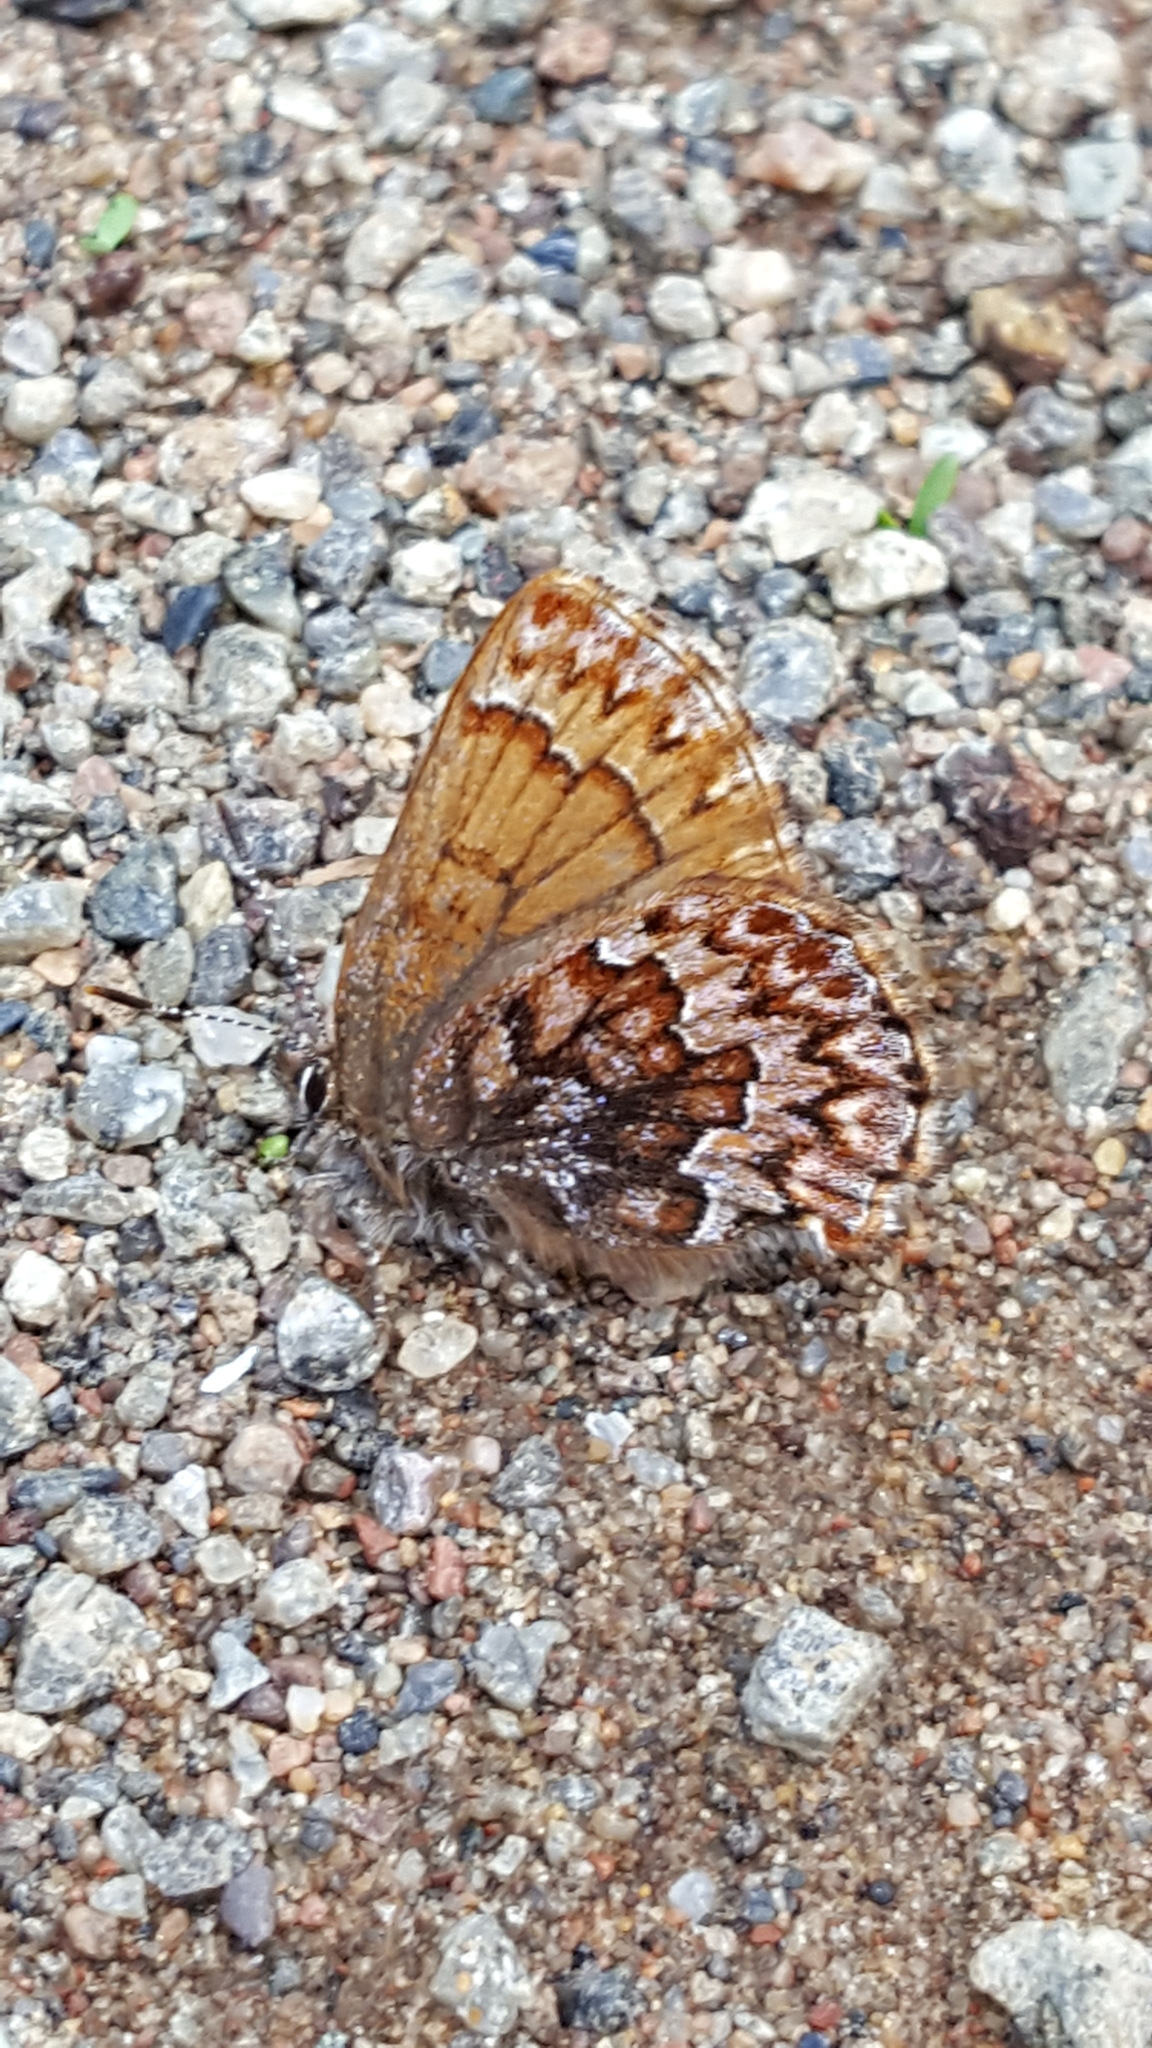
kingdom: Animalia
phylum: Arthropoda
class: Insecta
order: Lepidoptera
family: Lycaenidae
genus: Incisalia
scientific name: Incisalia eryphon
